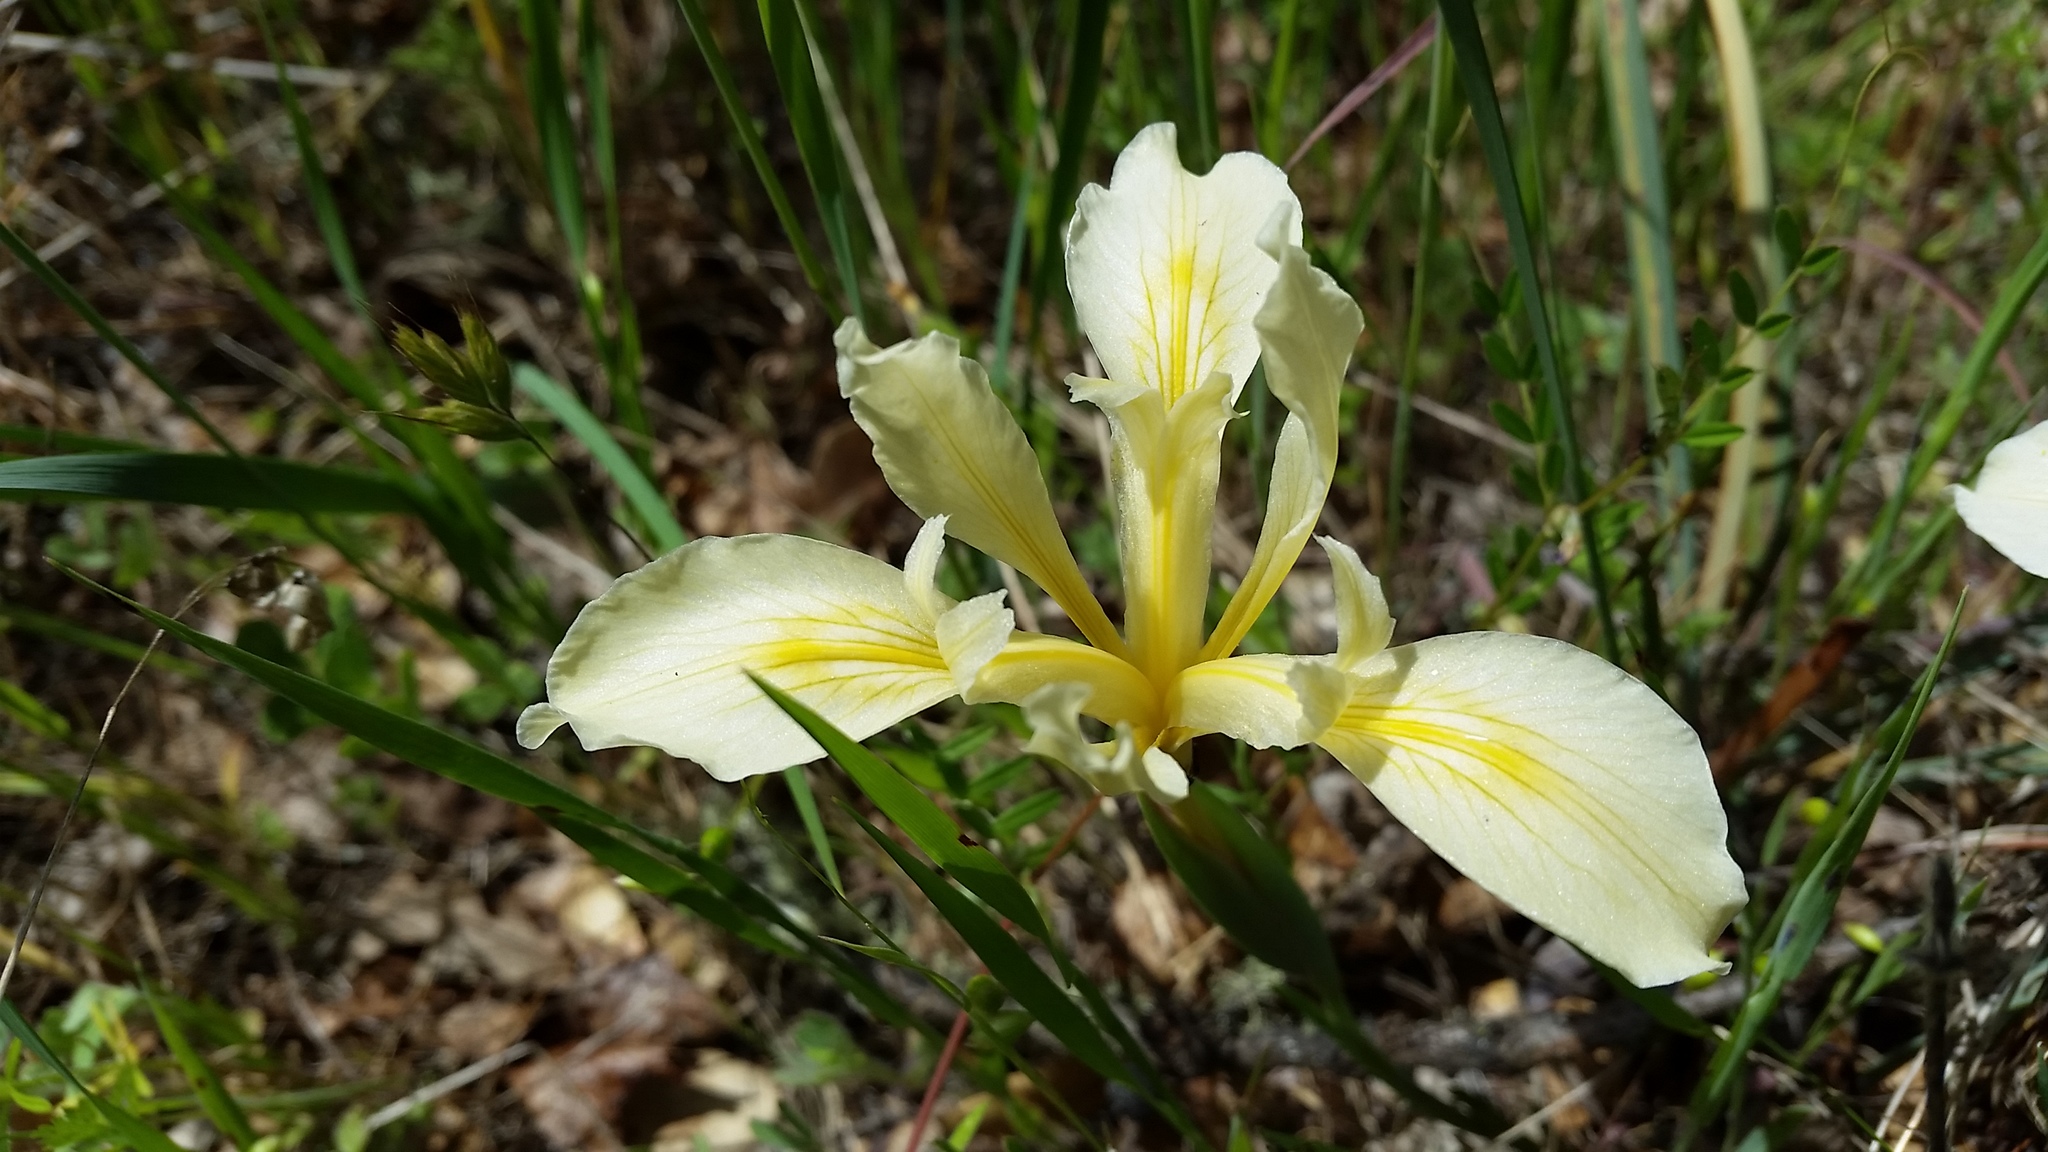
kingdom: Plantae
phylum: Tracheophyta
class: Liliopsida
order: Asparagales
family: Iridaceae
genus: Iris
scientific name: Iris fernaldii
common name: Fernald's iris
